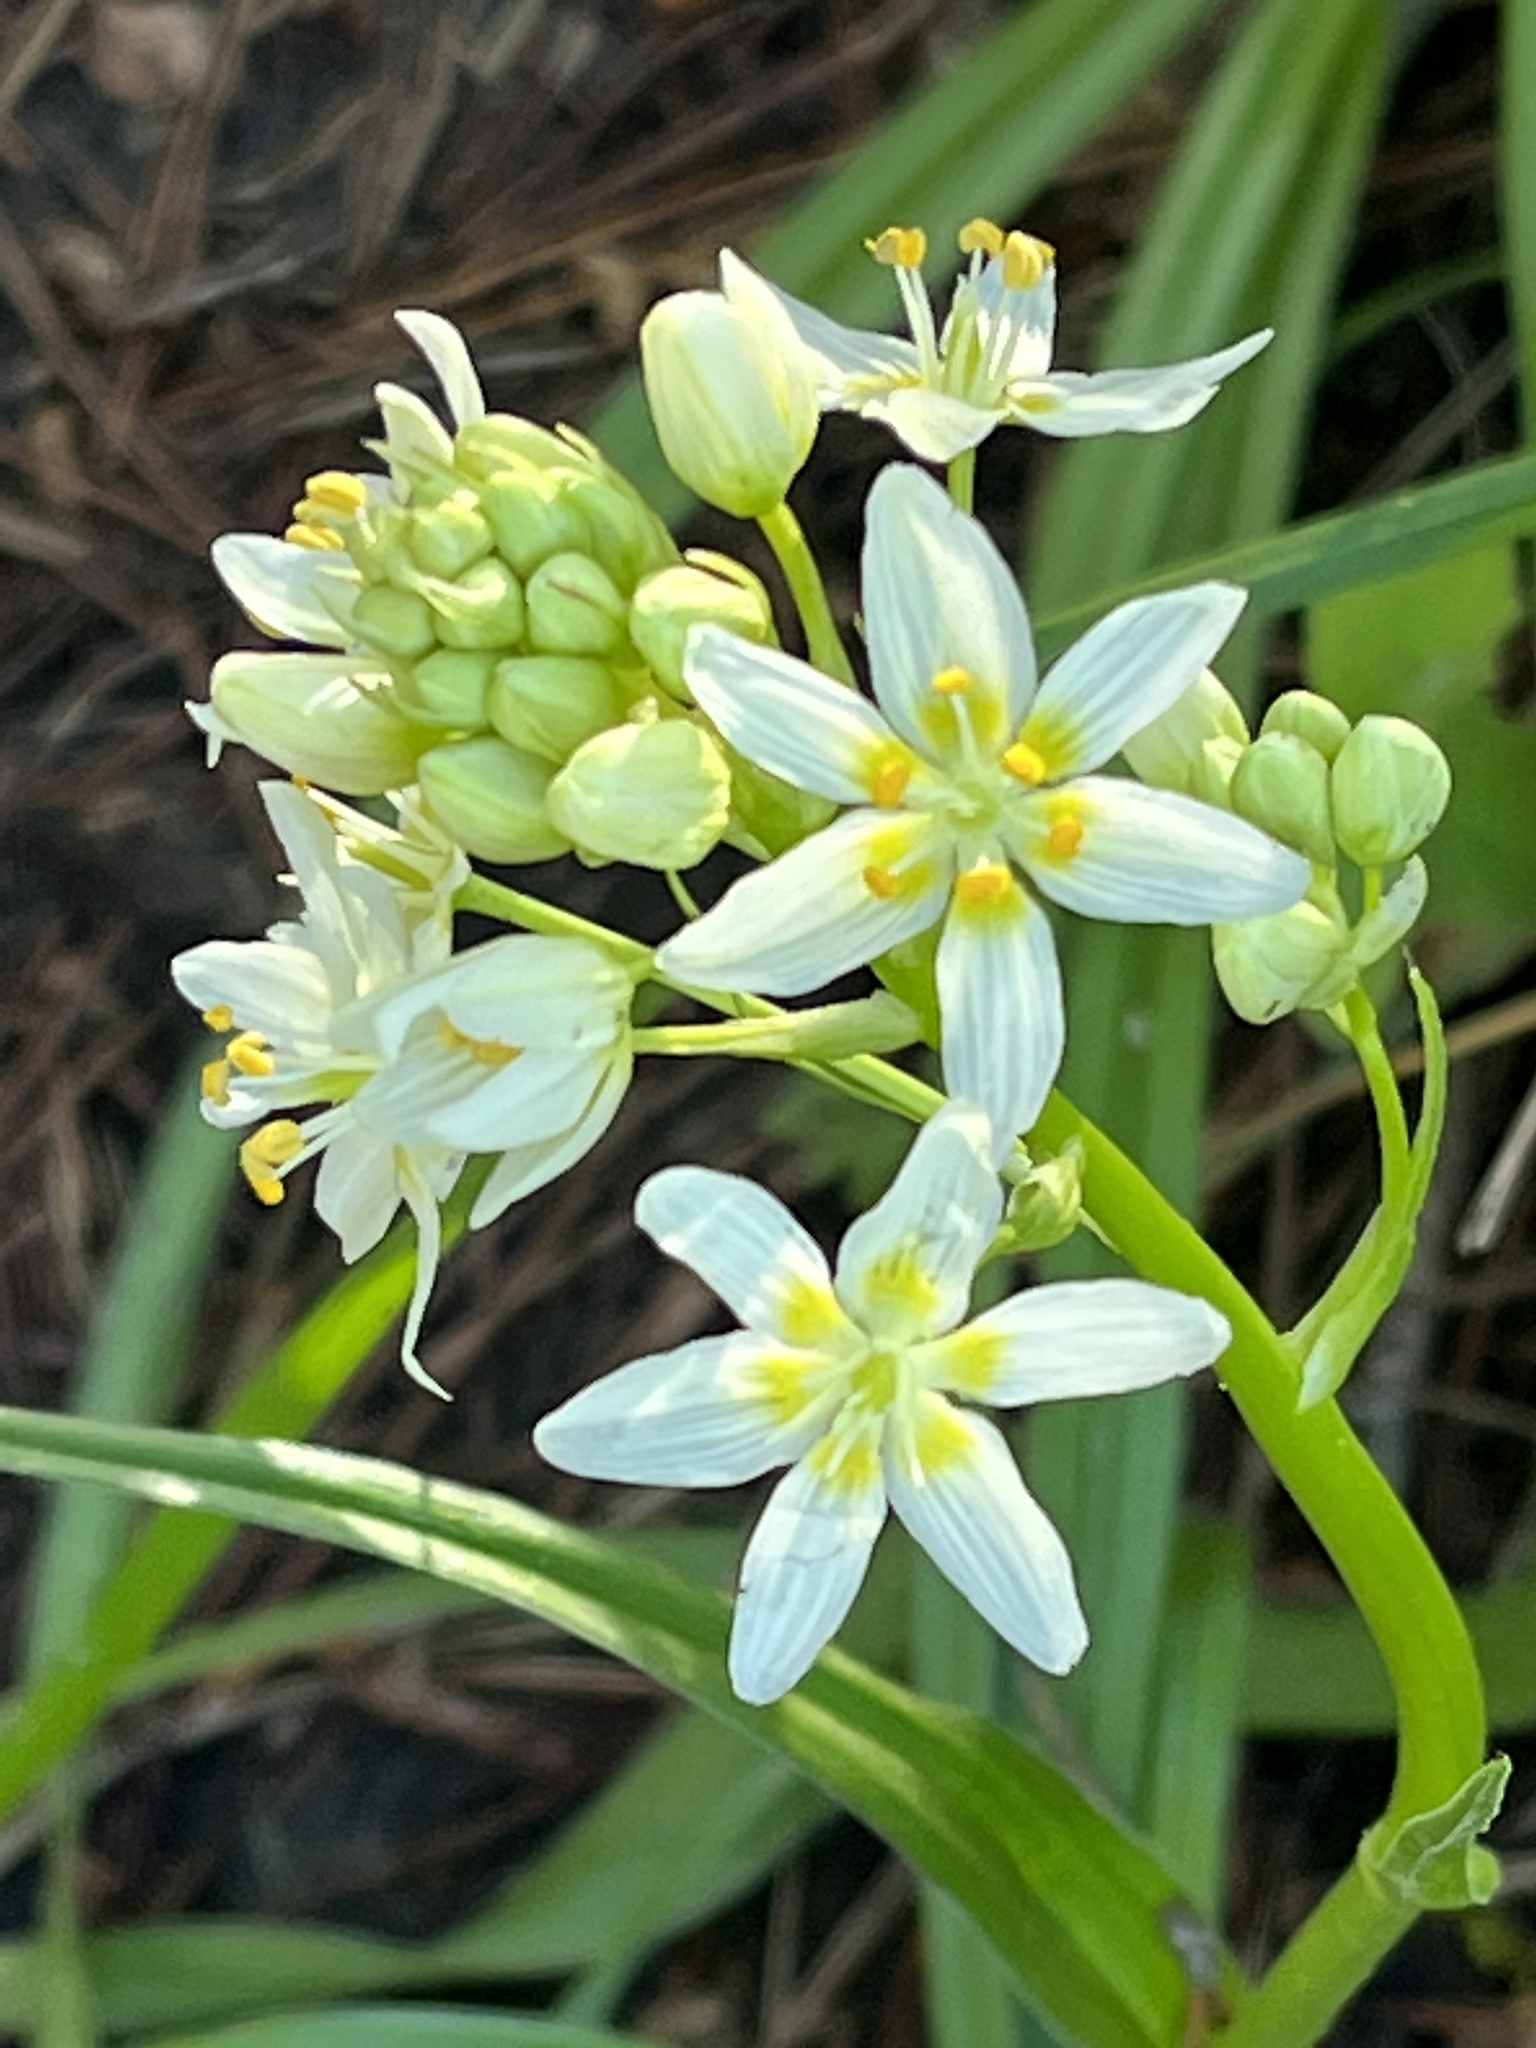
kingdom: Plantae
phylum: Tracheophyta
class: Liliopsida
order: Liliales
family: Melanthiaceae
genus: Toxicoscordion
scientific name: Toxicoscordion fremontii
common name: Fremont's death camas
